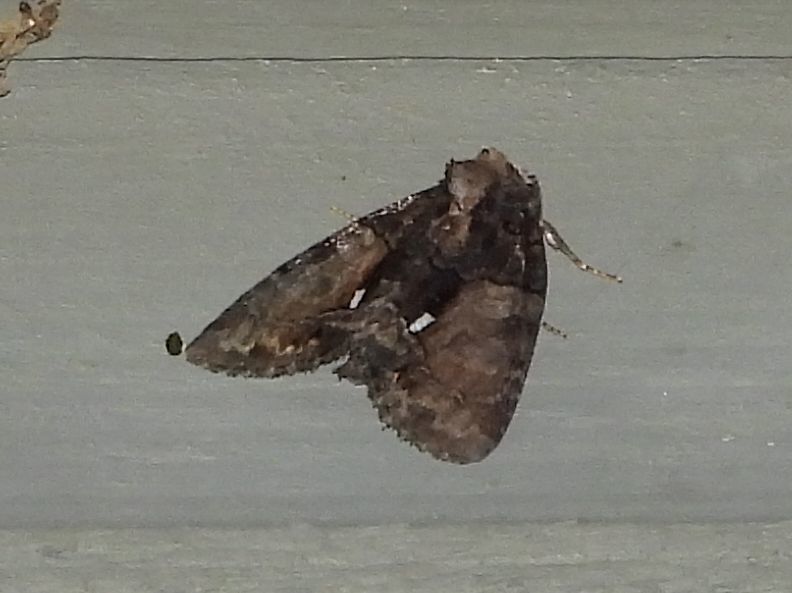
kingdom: Animalia
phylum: Arthropoda
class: Insecta
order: Lepidoptera
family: Noctuidae
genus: Chytonix
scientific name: Chytonix palliatricula
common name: Cloaked marvel
